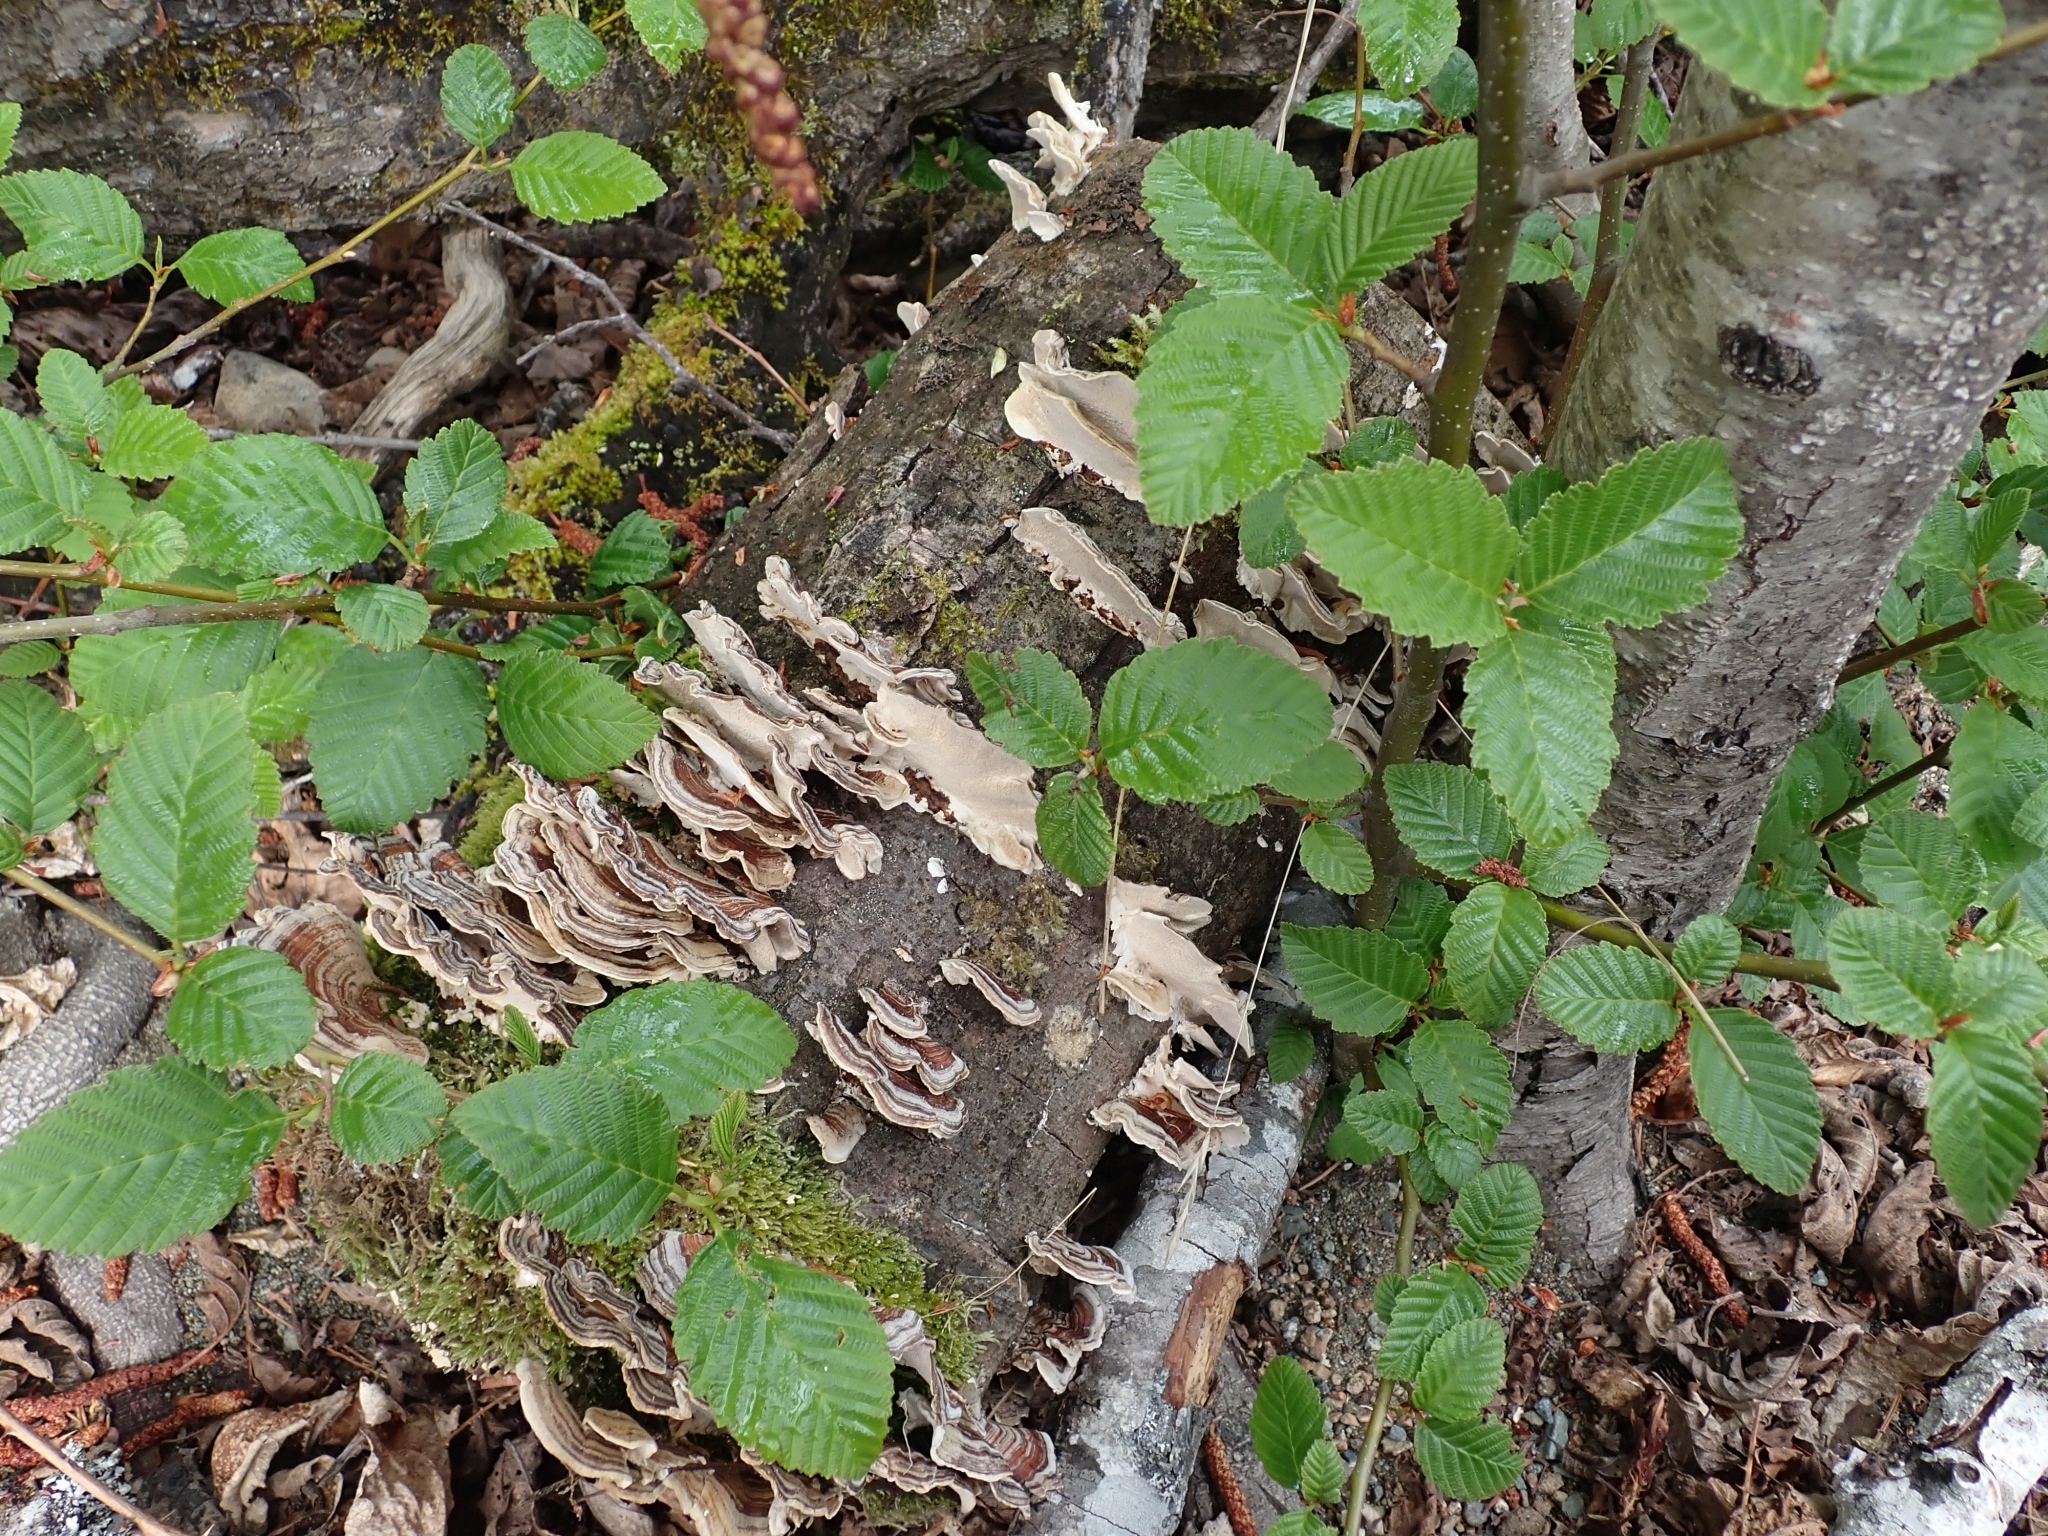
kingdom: Plantae
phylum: Tracheophyta
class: Magnoliopsida
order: Fagales
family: Betulaceae
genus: Alnus
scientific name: Alnus rubra
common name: Red alder
